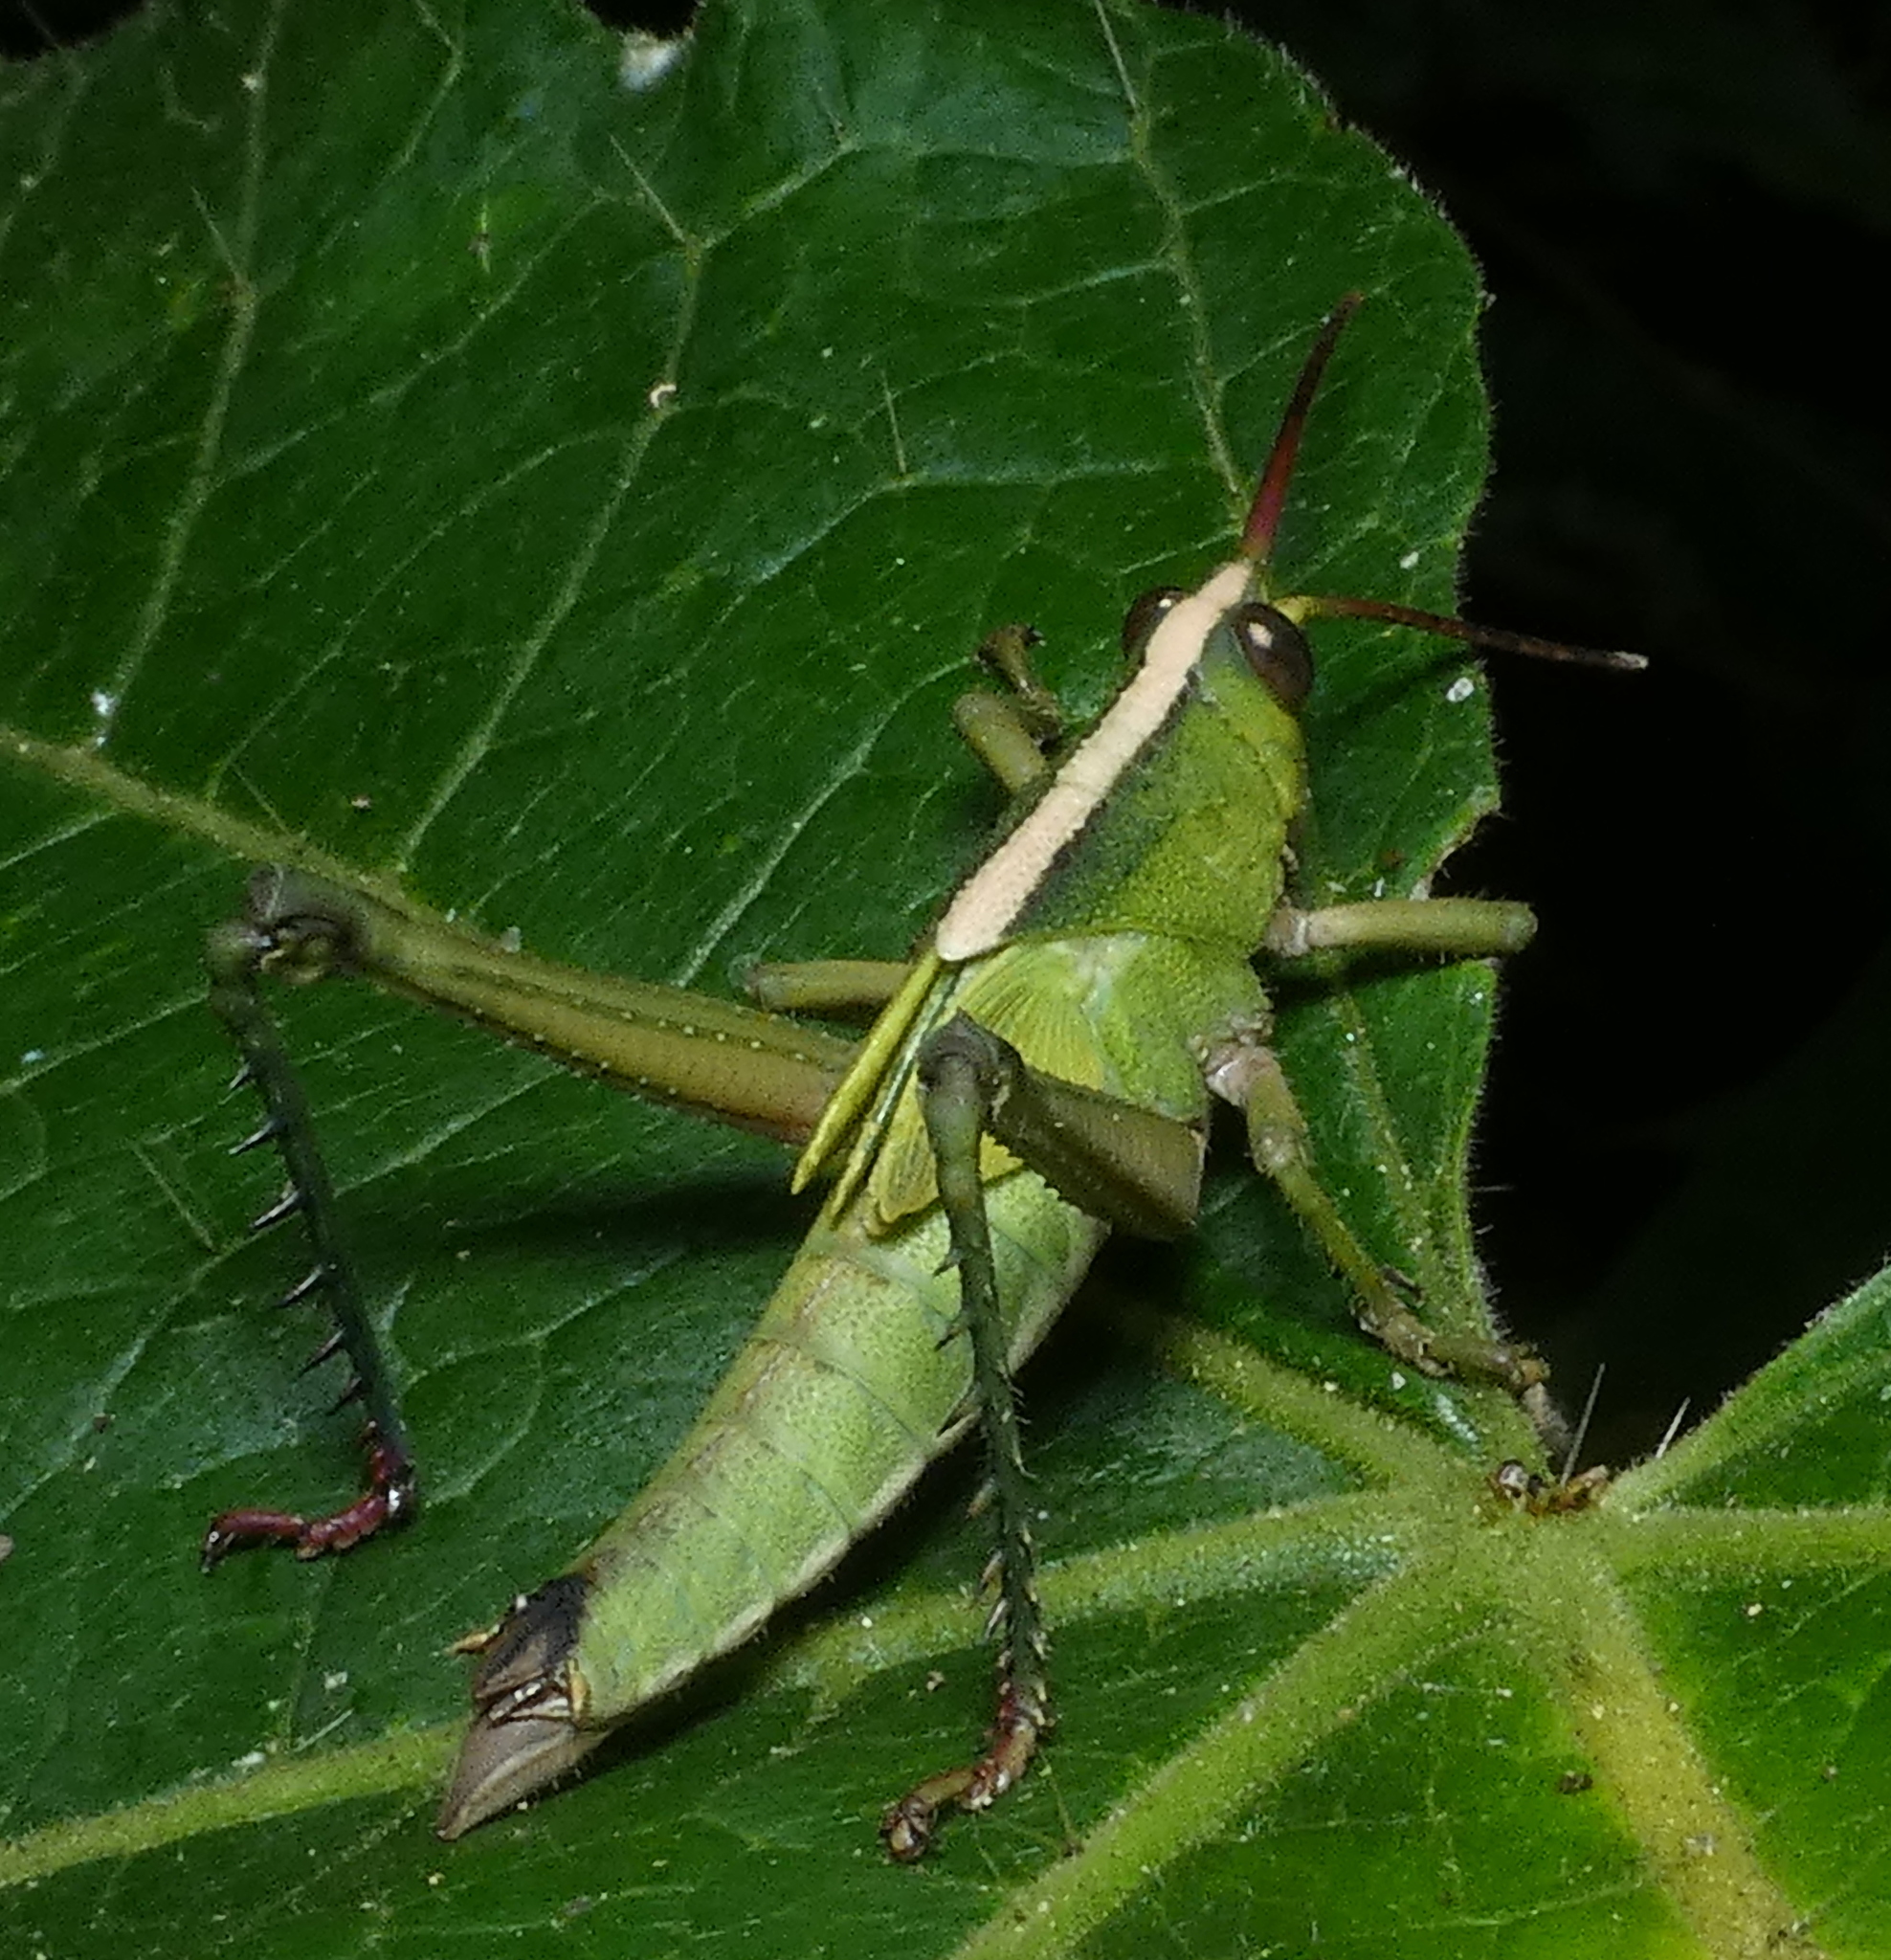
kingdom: Animalia
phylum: Arthropoda
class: Insecta
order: Orthoptera
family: Romaleidae
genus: Agriacris
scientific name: Agriacris auripennis
